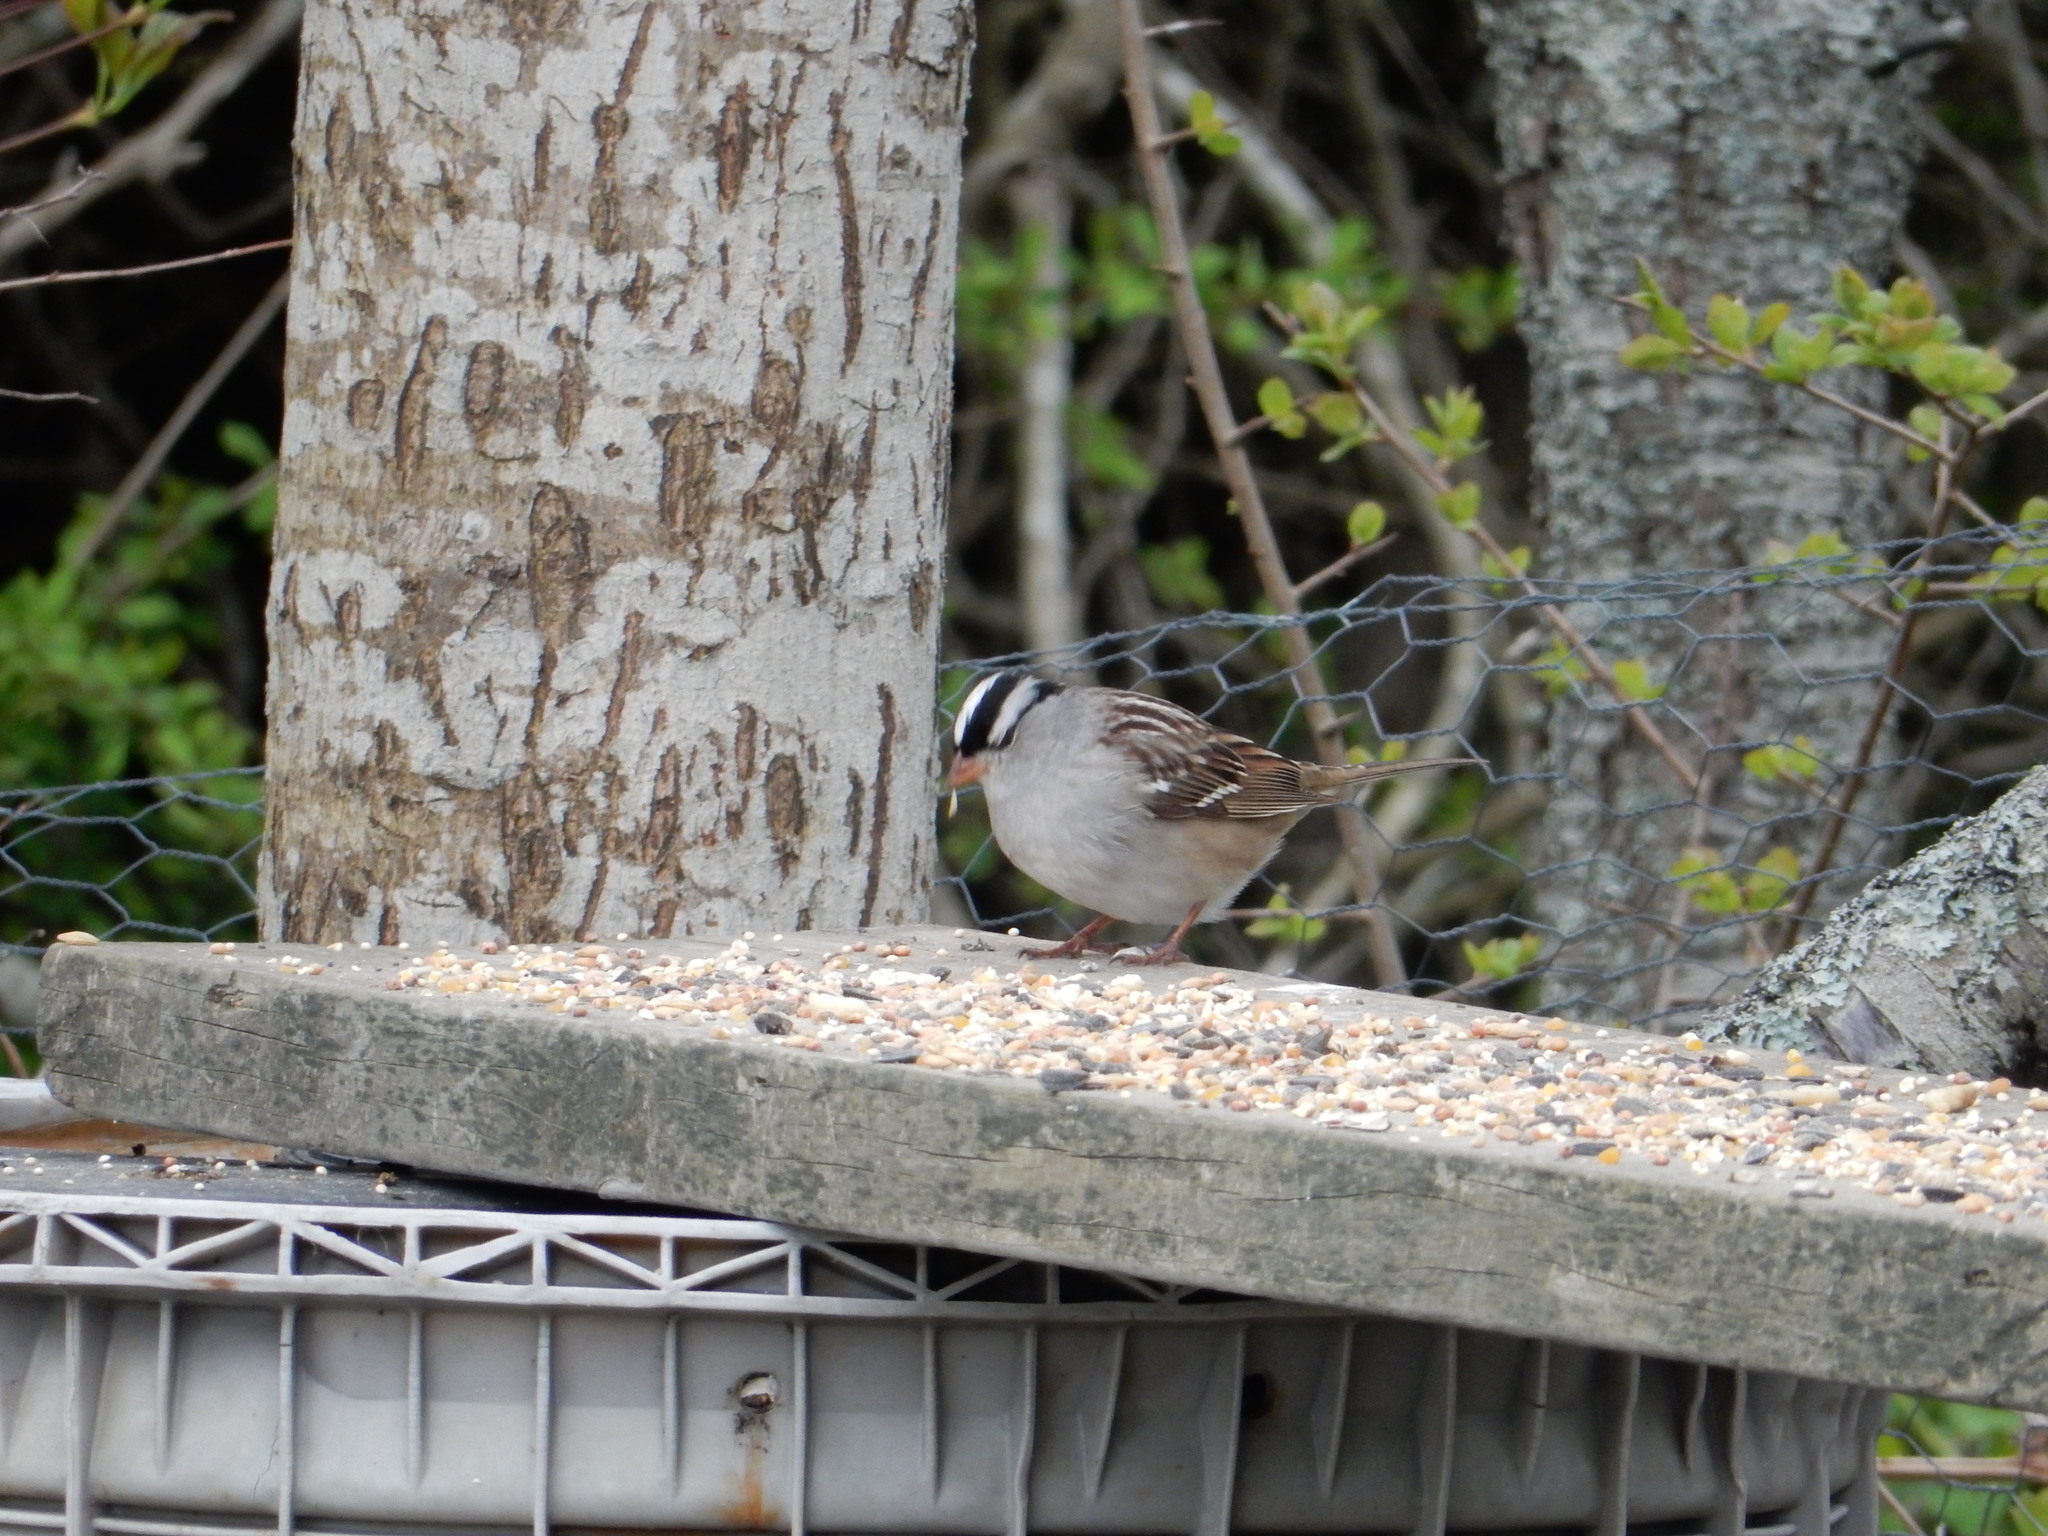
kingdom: Animalia
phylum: Chordata
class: Aves
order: Passeriformes
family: Passerellidae
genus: Zonotrichia
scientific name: Zonotrichia leucophrys
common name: White-crowned sparrow
